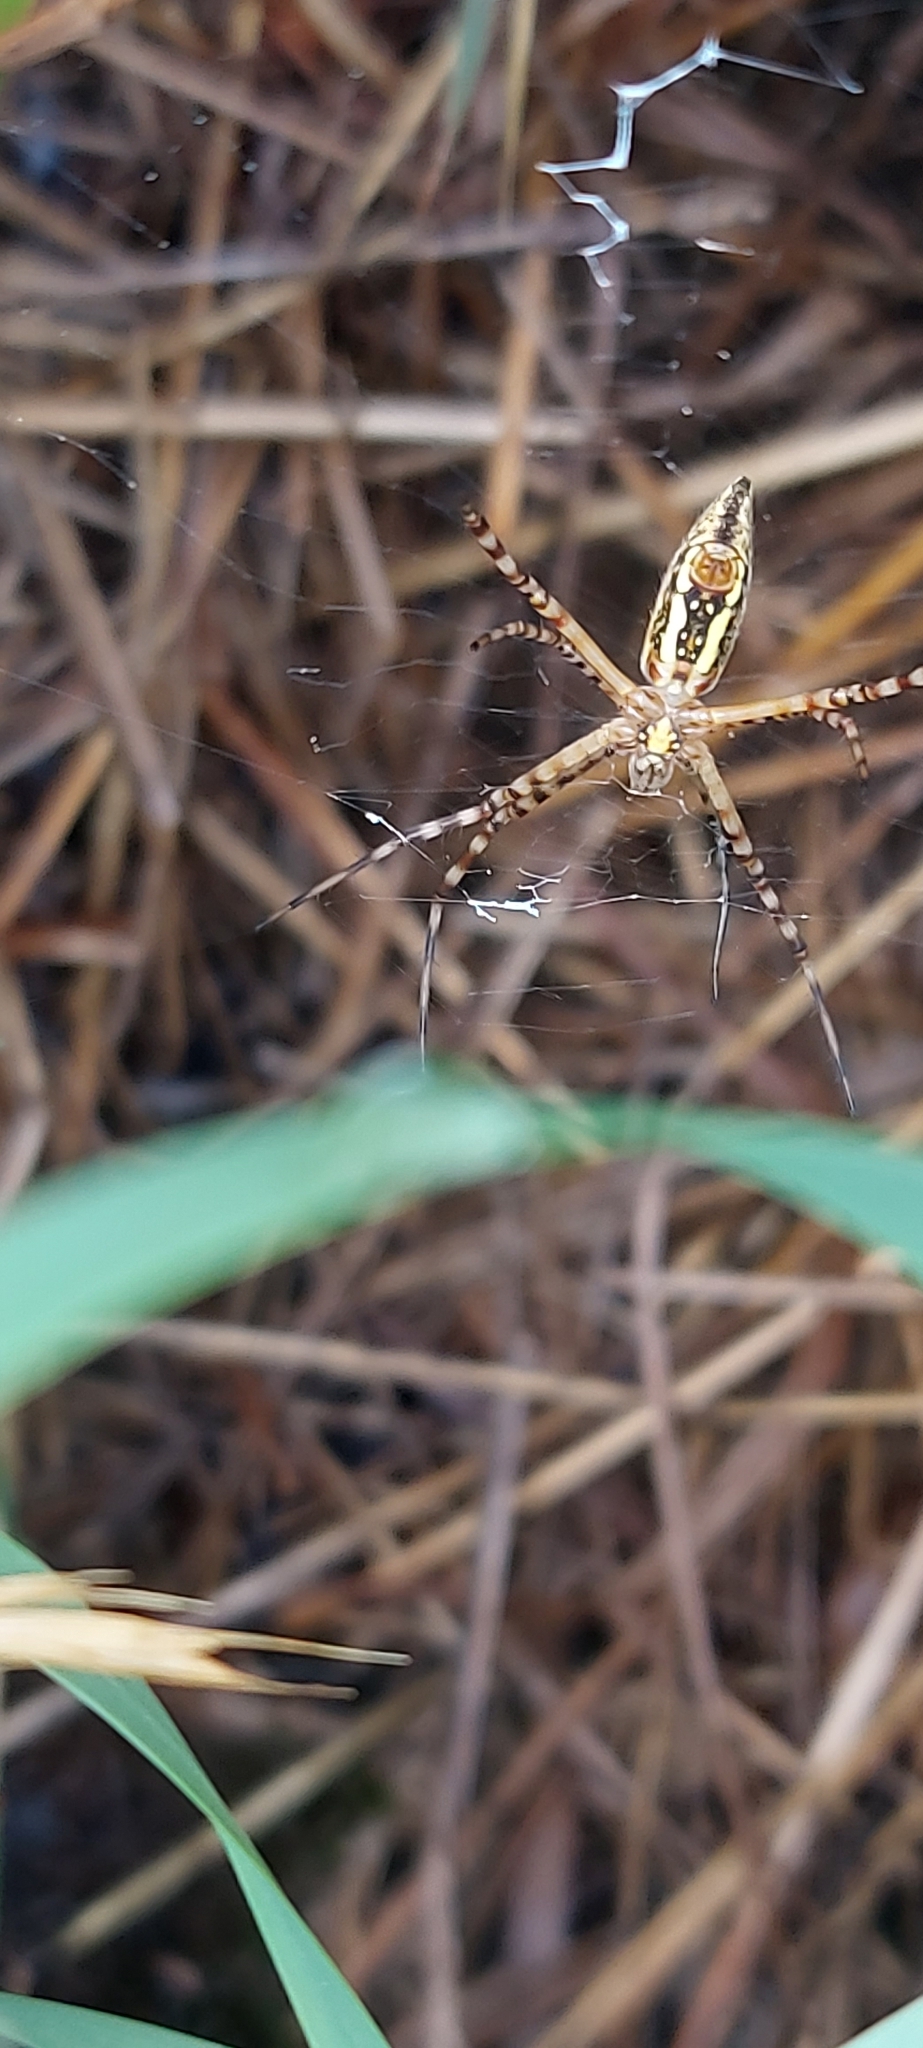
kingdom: Animalia
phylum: Arthropoda
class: Arachnida
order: Araneae
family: Araneidae
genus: Argiope
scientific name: Argiope trifasciata
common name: Banded garden spider
